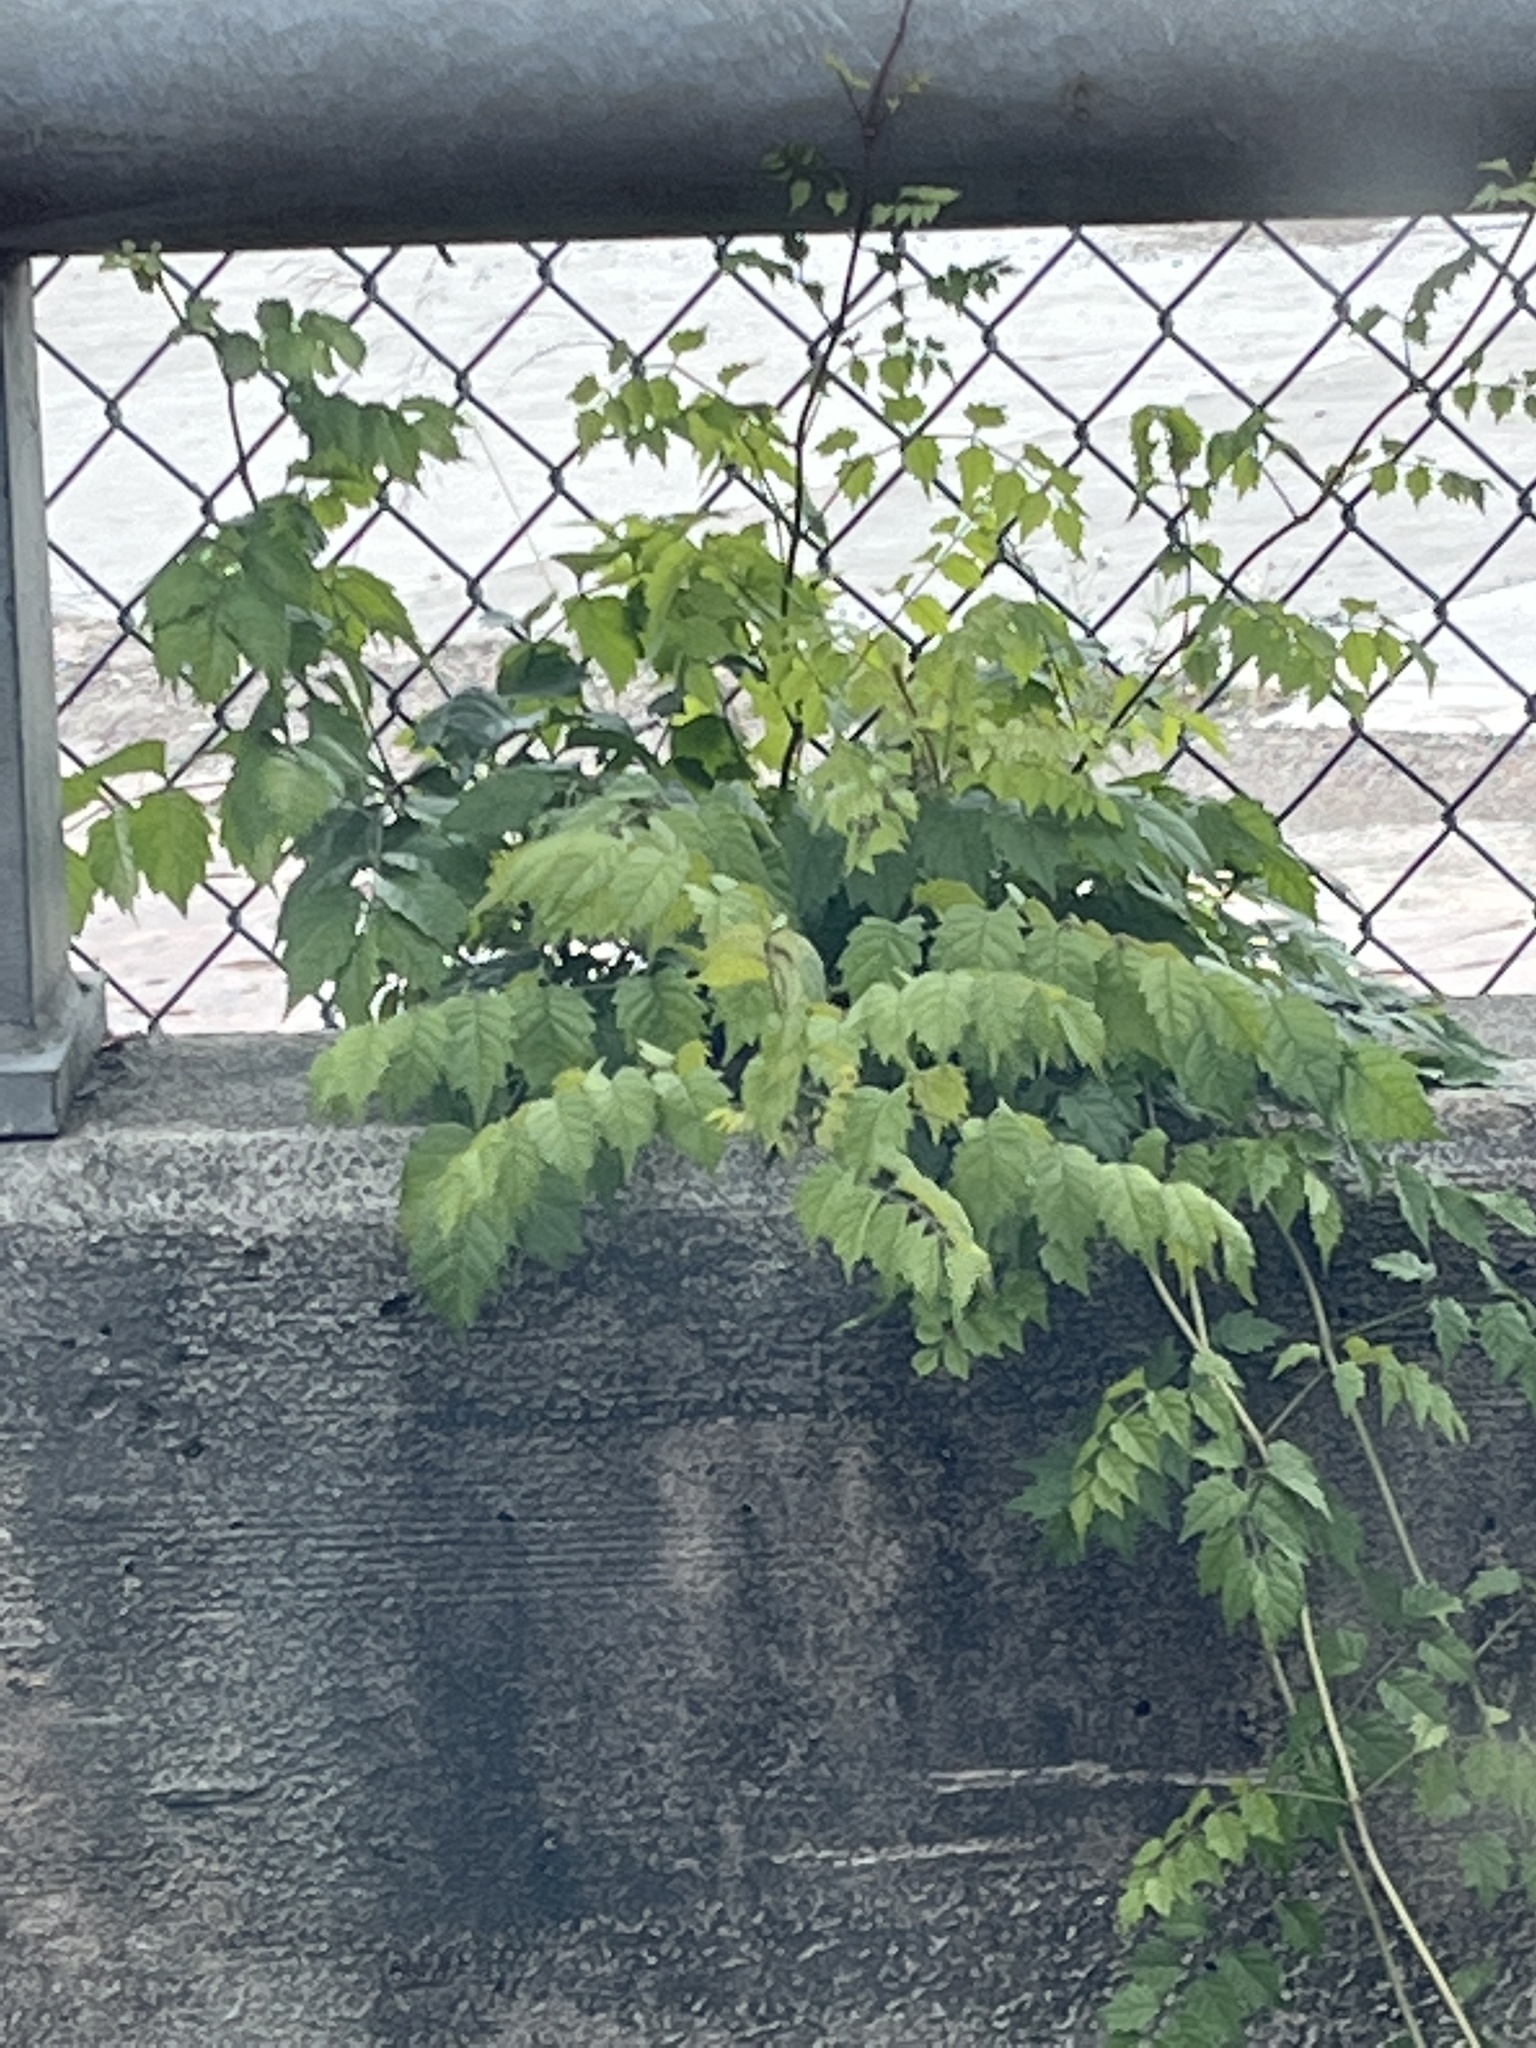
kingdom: Plantae
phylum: Tracheophyta
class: Magnoliopsida
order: Lamiales
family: Bignoniaceae
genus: Campsis
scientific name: Campsis radicans
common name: Trumpet-creeper
